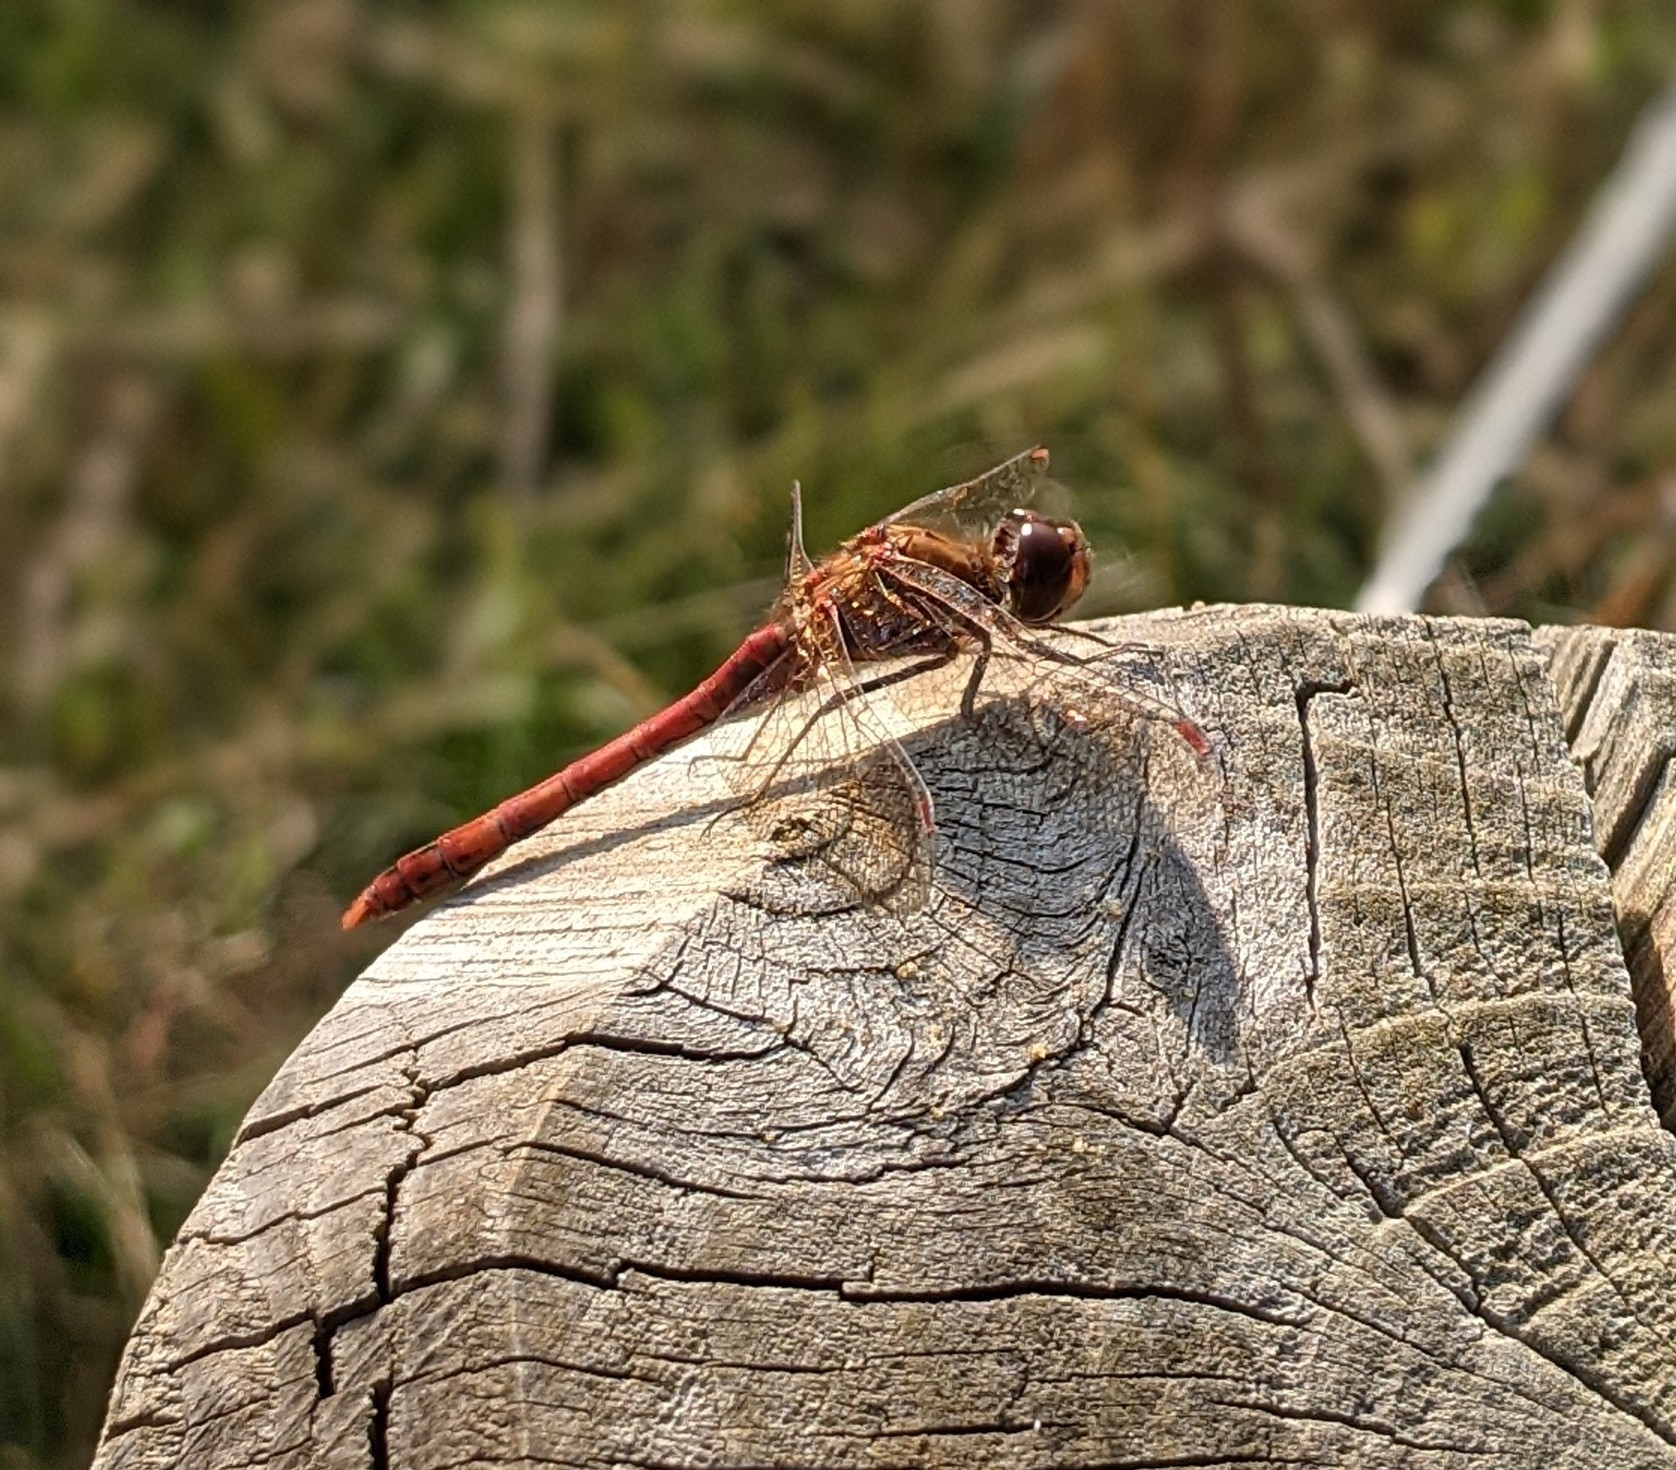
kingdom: Animalia
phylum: Arthropoda
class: Insecta
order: Odonata
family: Libellulidae
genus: Sympetrum
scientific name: Sympetrum striolatum
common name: Common darter
